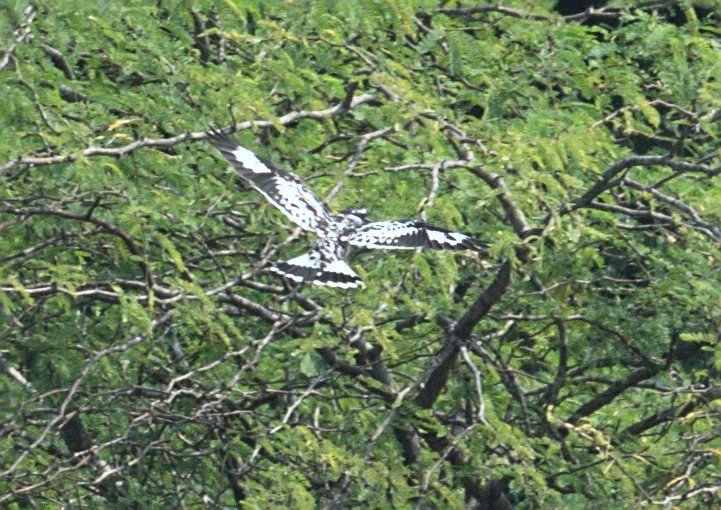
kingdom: Animalia
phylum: Chordata
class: Aves
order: Coraciiformes
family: Alcedinidae
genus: Ceryle
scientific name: Ceryle rudis
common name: Pied kingfisher
